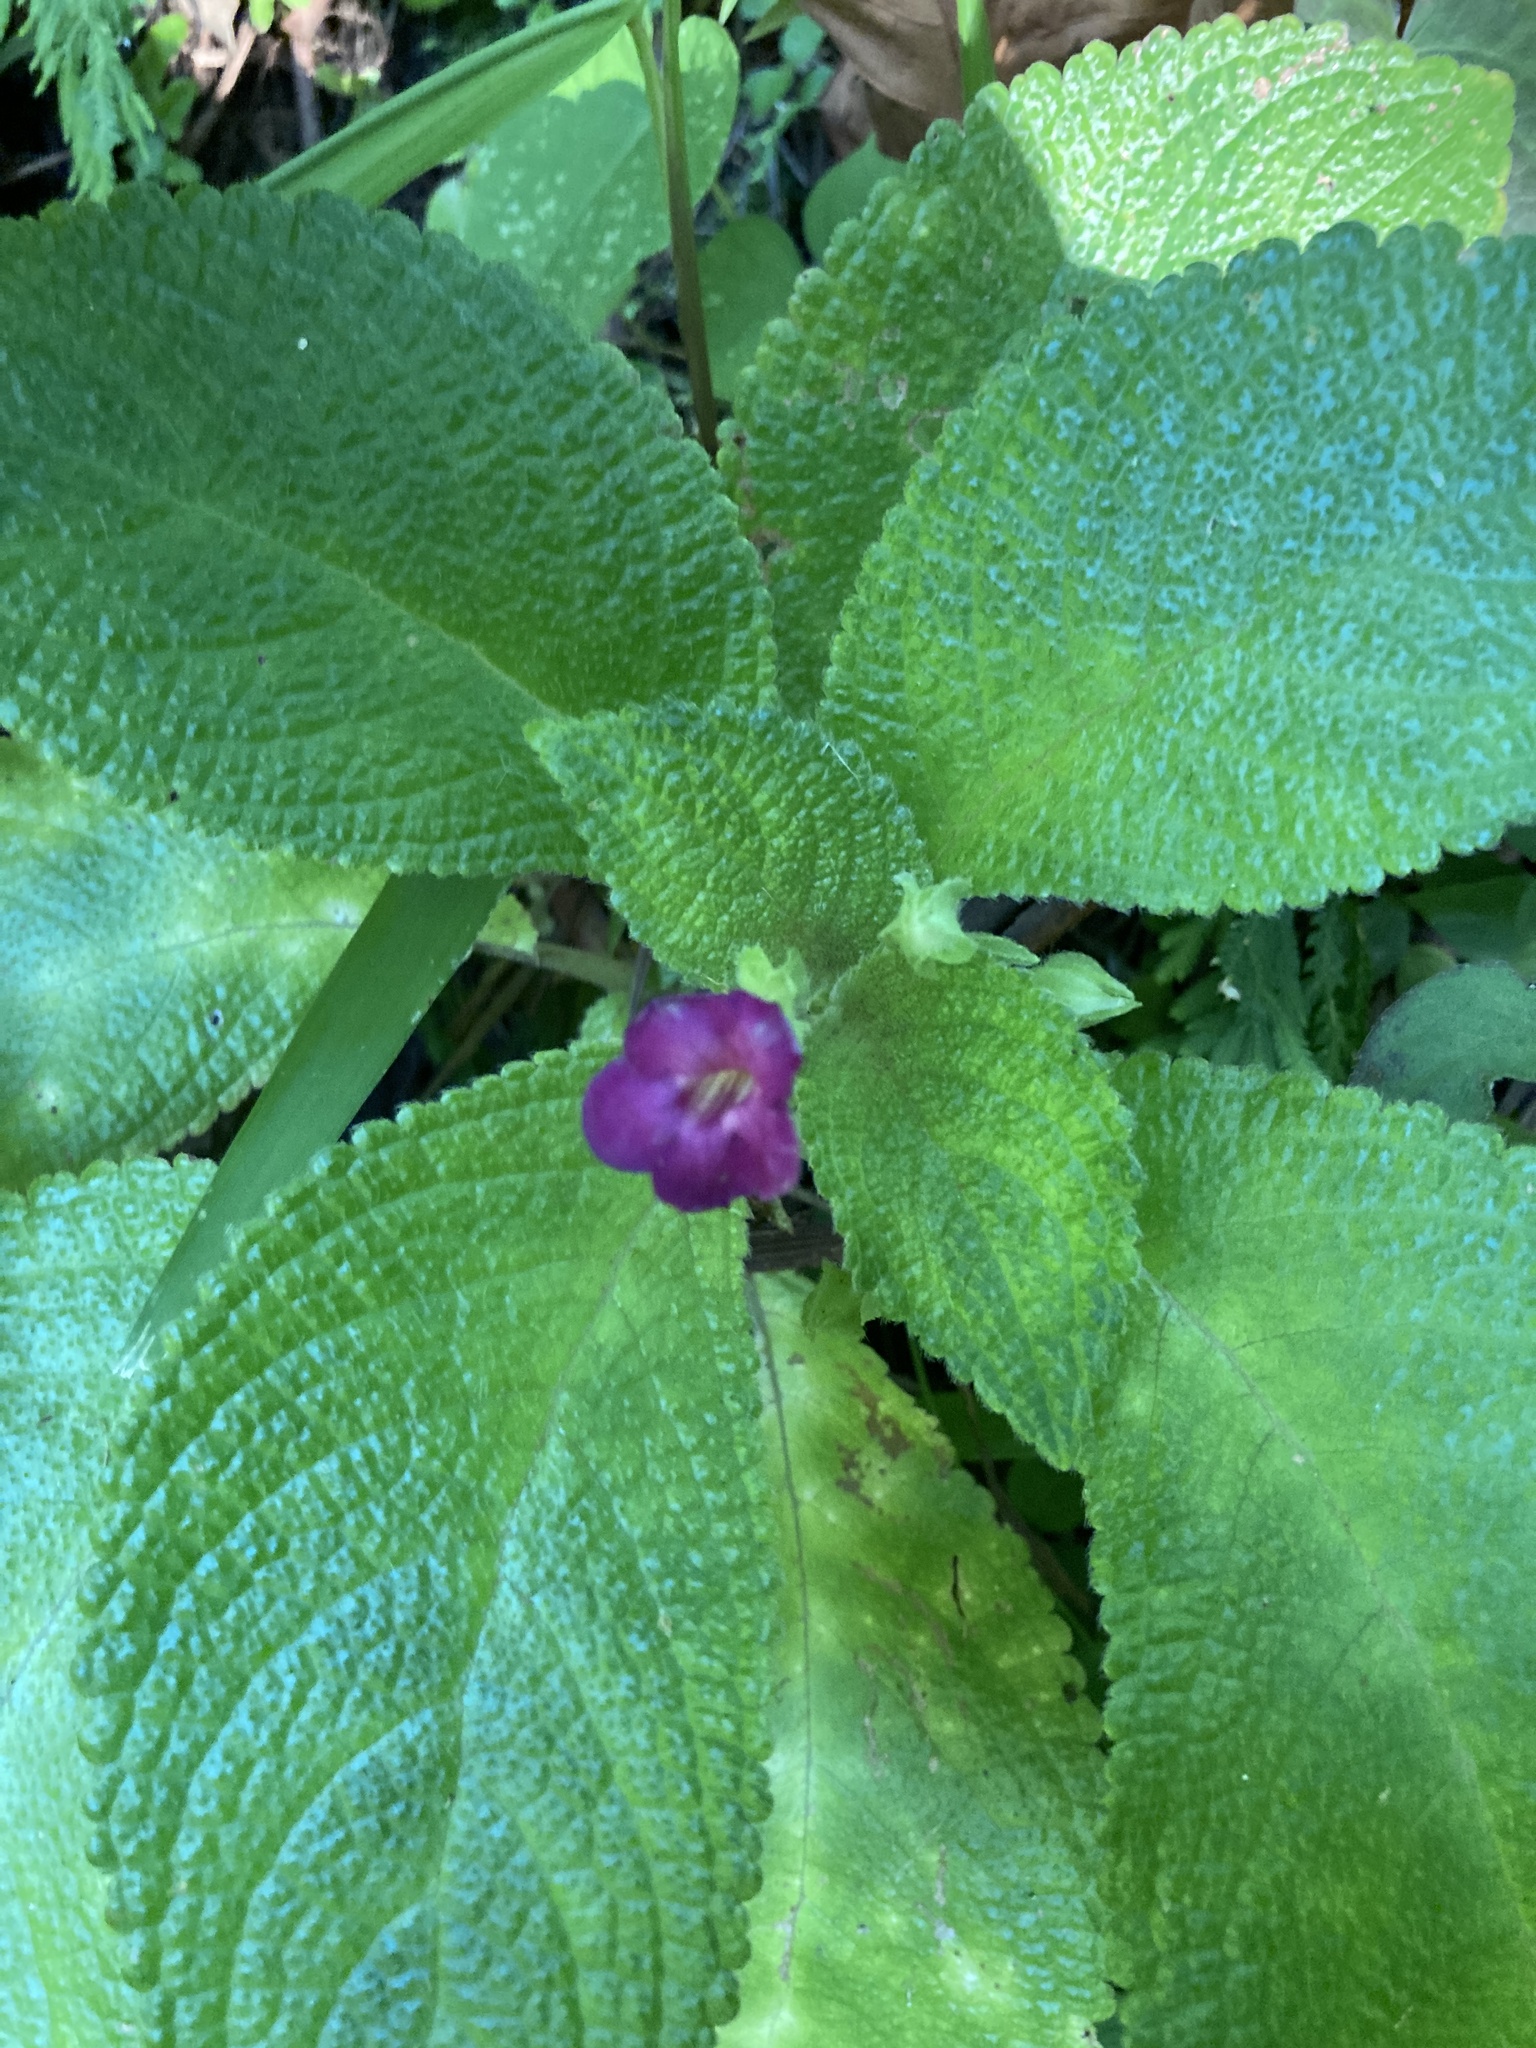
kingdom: Plantae
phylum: Tracheophyta
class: Magnoliopsida
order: Lamiales
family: Gesneriaceae
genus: Chrysothemis
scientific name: Chrysothemis melittifolia
